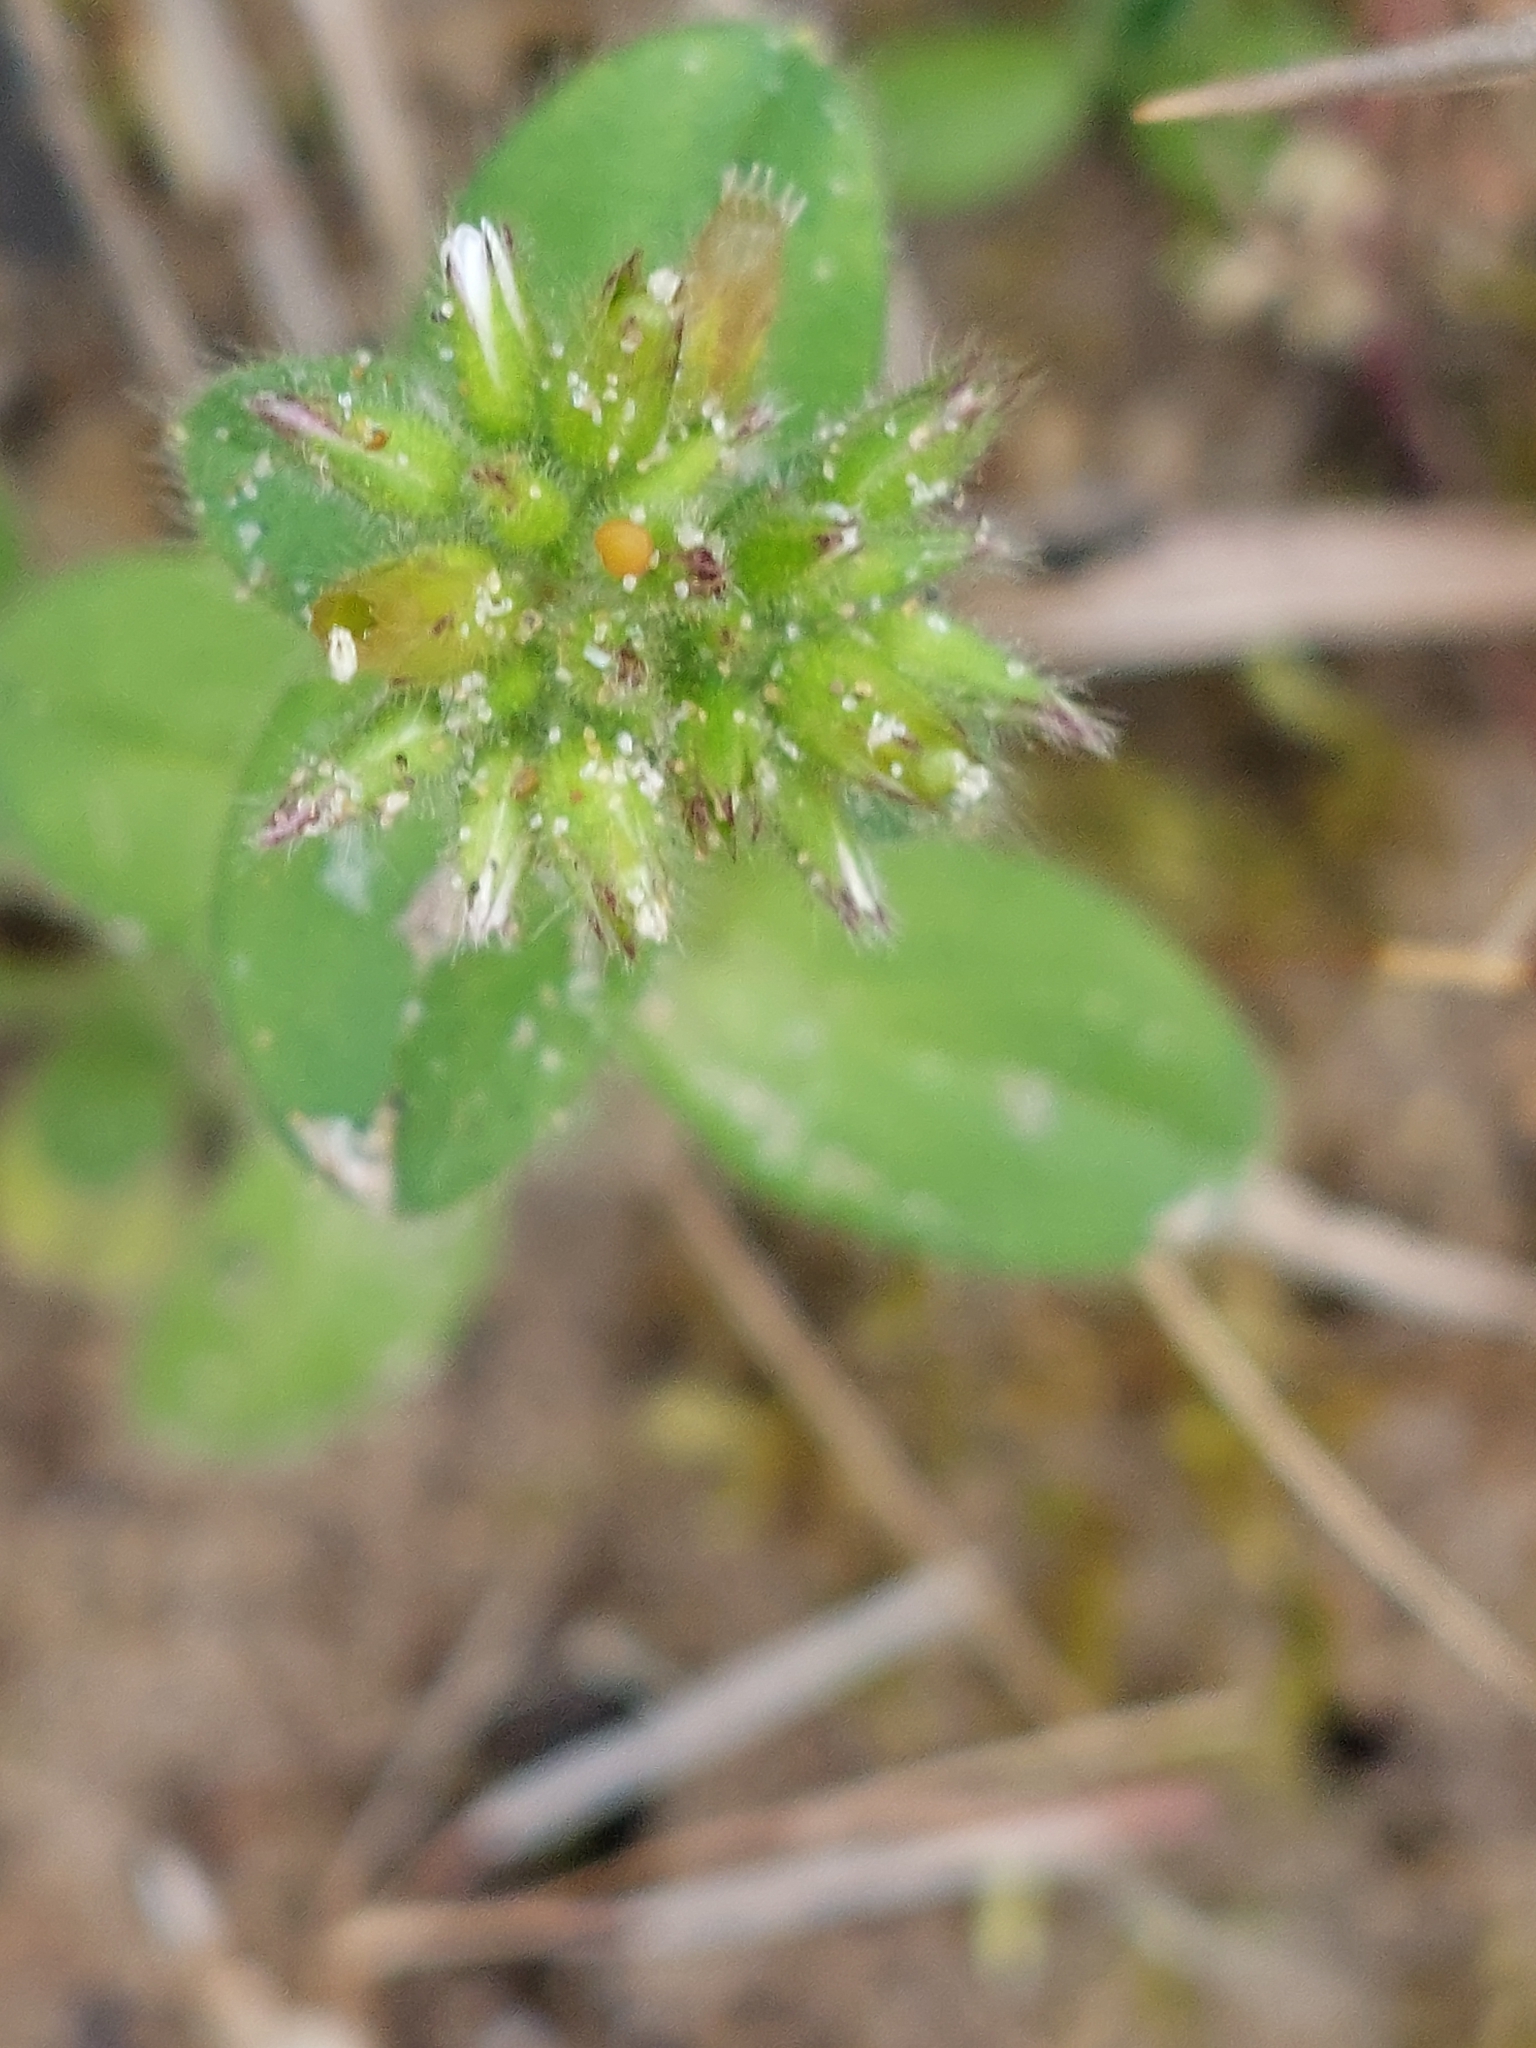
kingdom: Plantae
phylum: Tracheophyta
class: Magnoliopsida
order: Caryophyllales
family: Caryophyllaceae
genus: Cerastium
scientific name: Cerastium glomeratum
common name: Sticky chickweed
